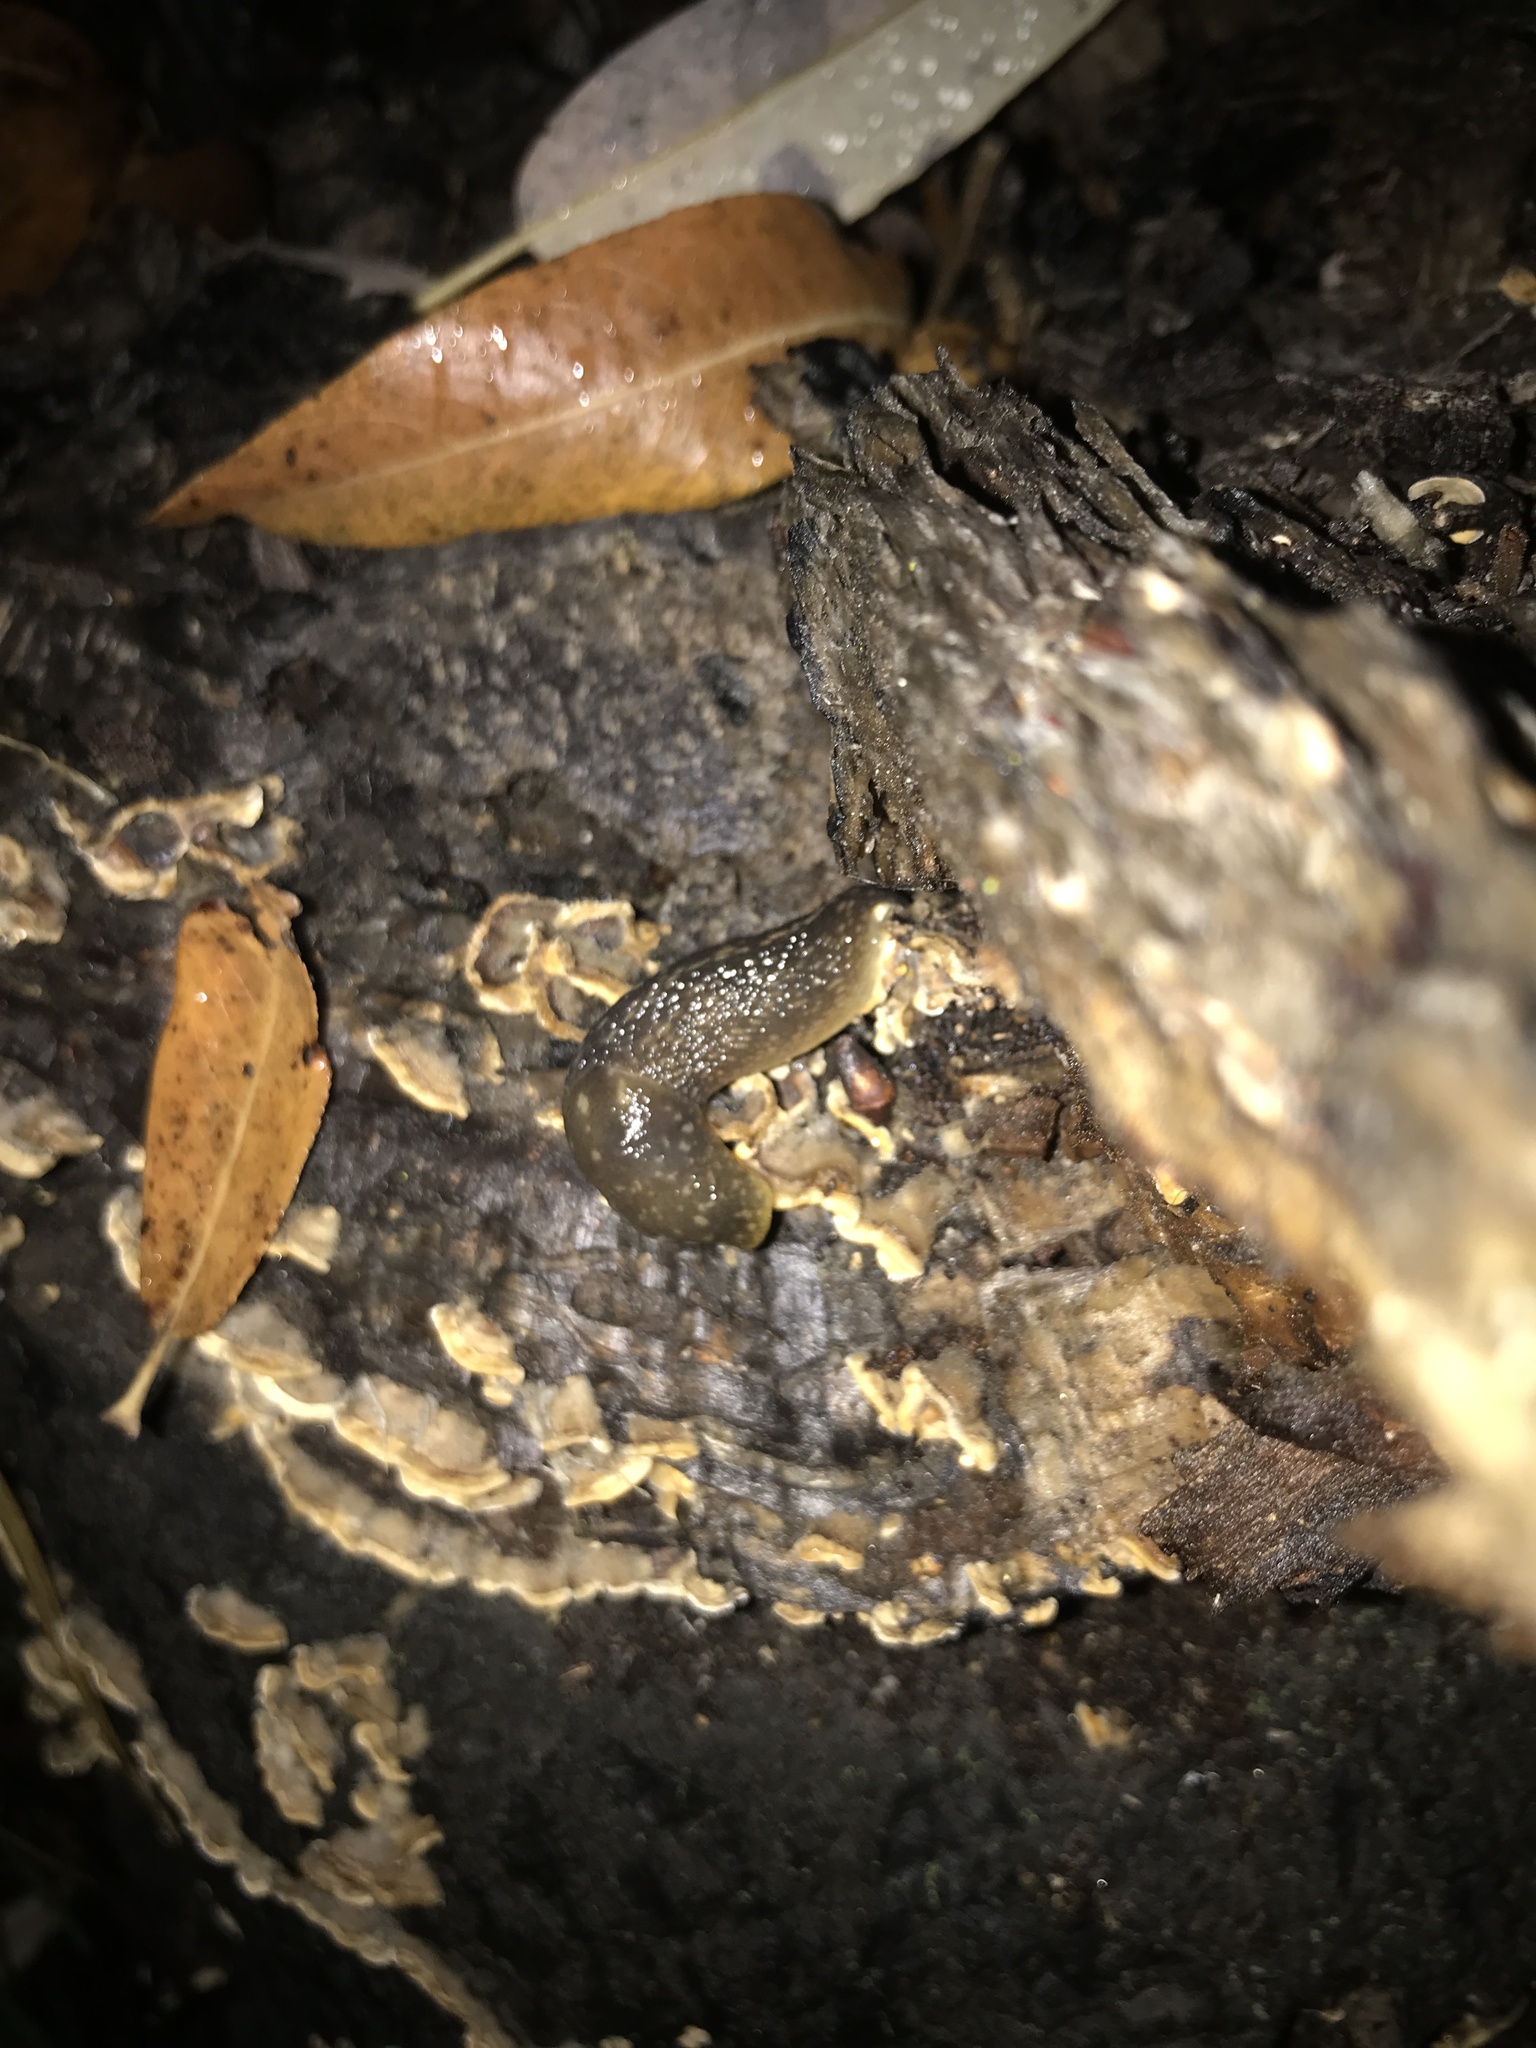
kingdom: Animalia
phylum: Mollusca
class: Gastropoda
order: Stylommatophora
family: Limacidae
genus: Limacus
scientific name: Limacus flavus
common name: Yellow gardenslug
